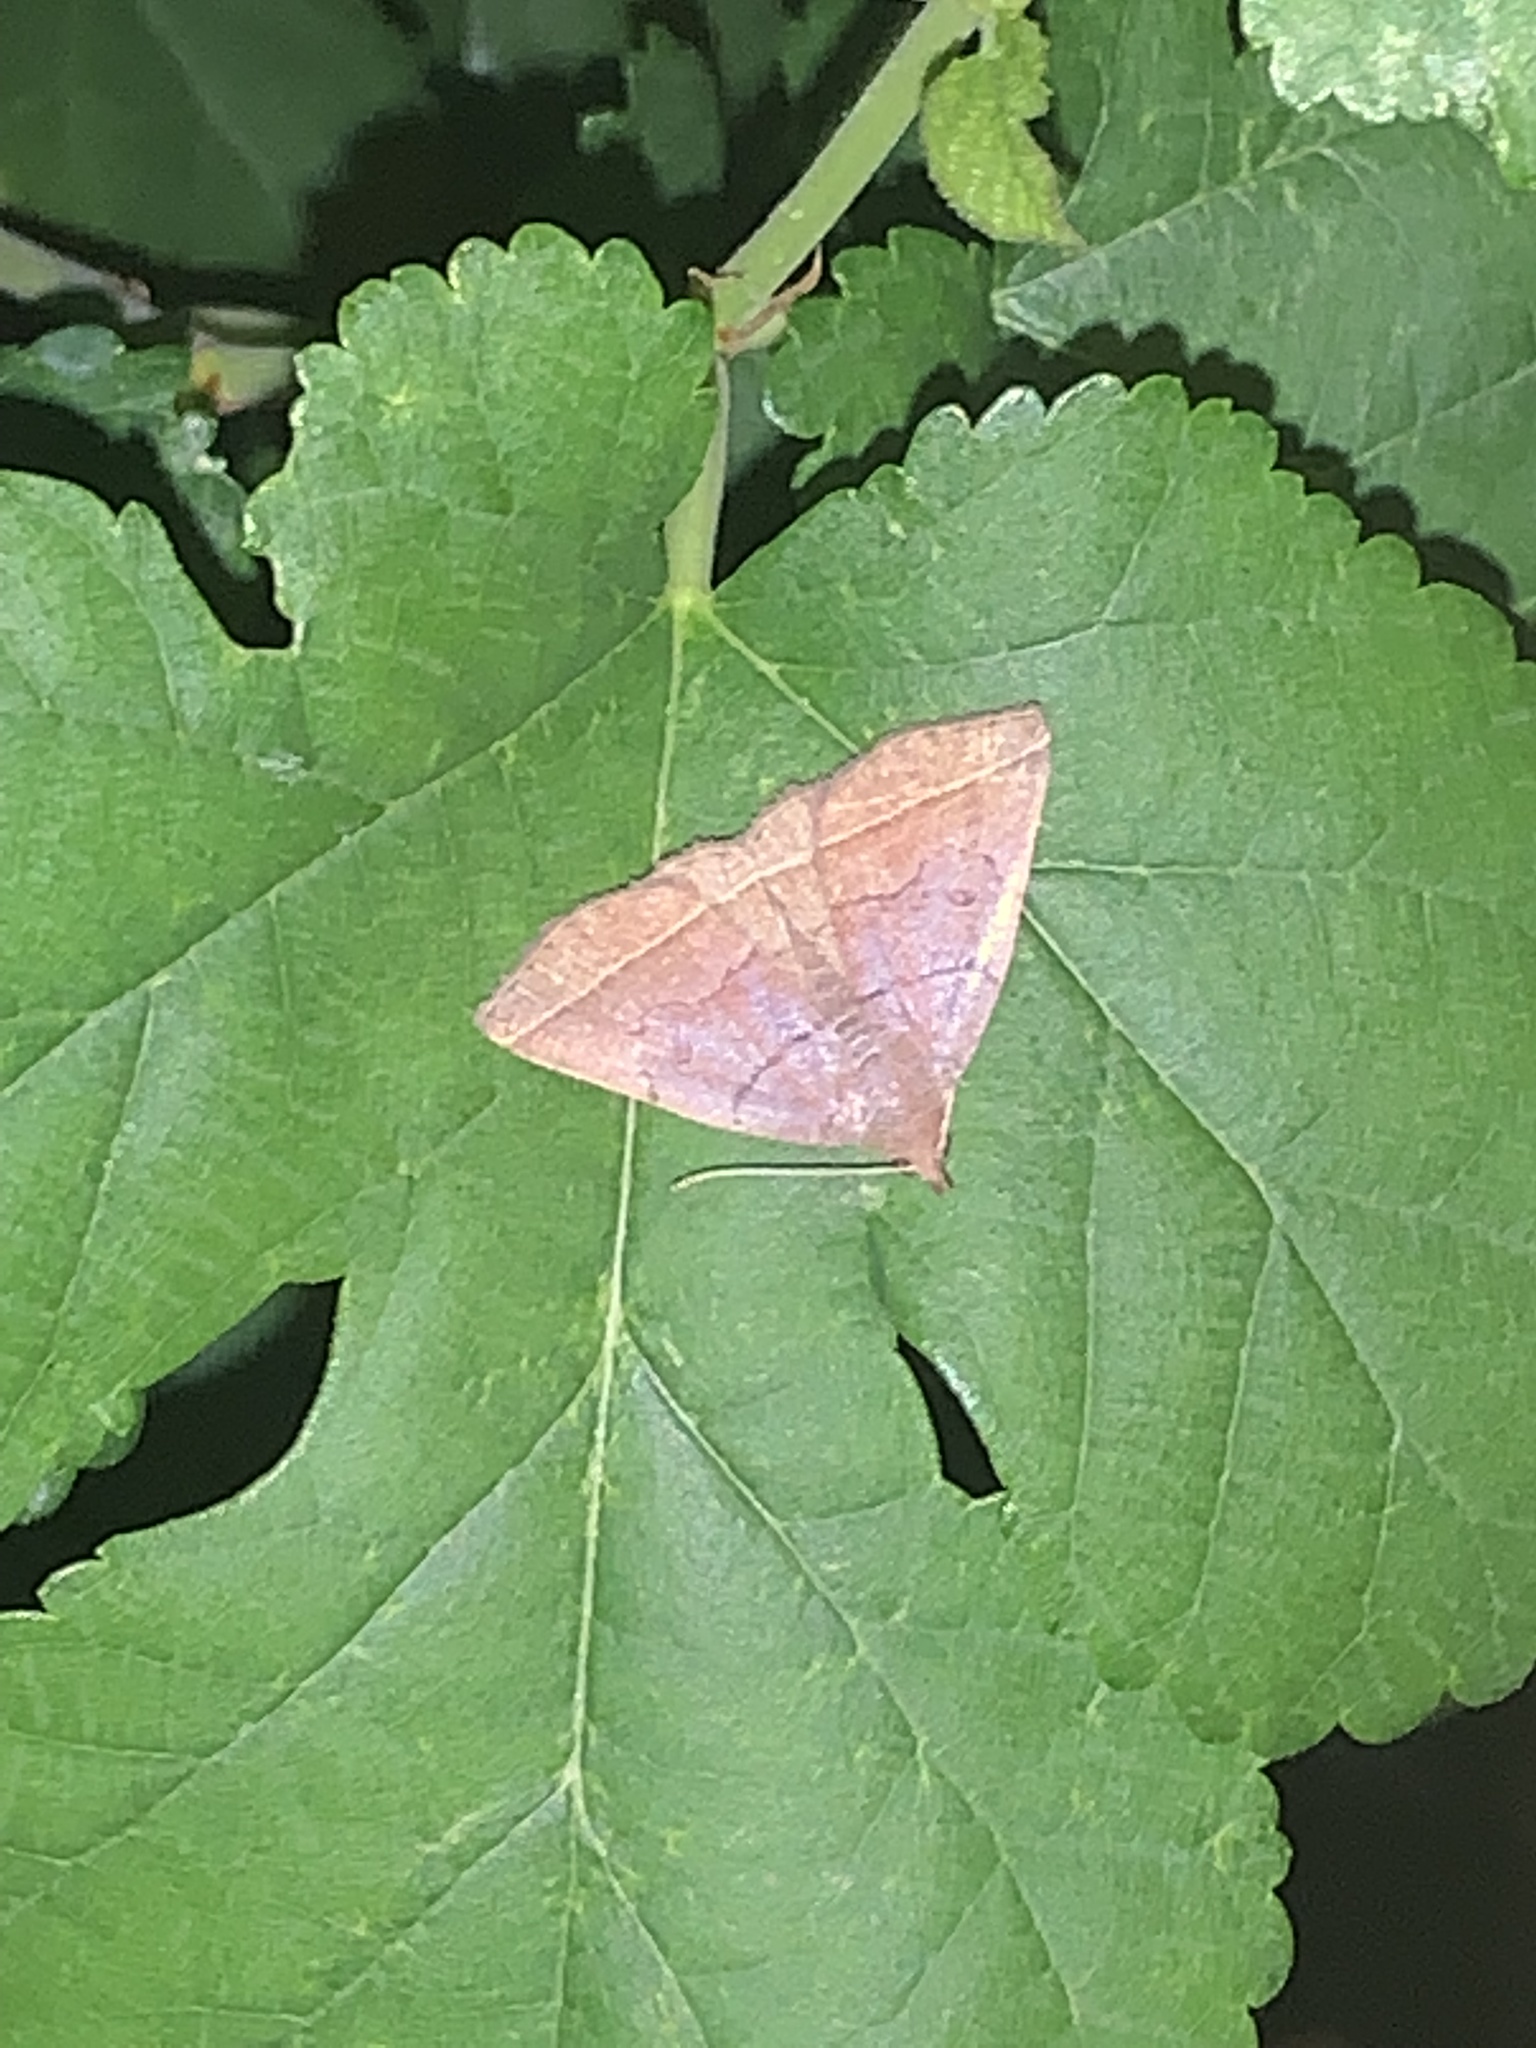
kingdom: Animalia
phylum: Arthropoda
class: Insecta
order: Lepidoptera
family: Erebidae
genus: Zanclognatha
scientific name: Zanclognatha obscuripennis
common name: Dark fan-foot
